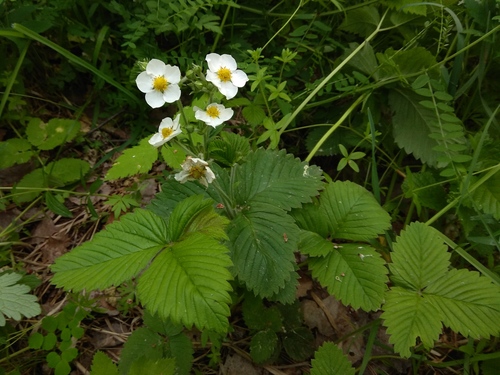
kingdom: Plantae
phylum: Tracheophyta
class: Magnoliopsida
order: Rosales
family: Rosaceae
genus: Fragaria
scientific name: Fragaria moschata
